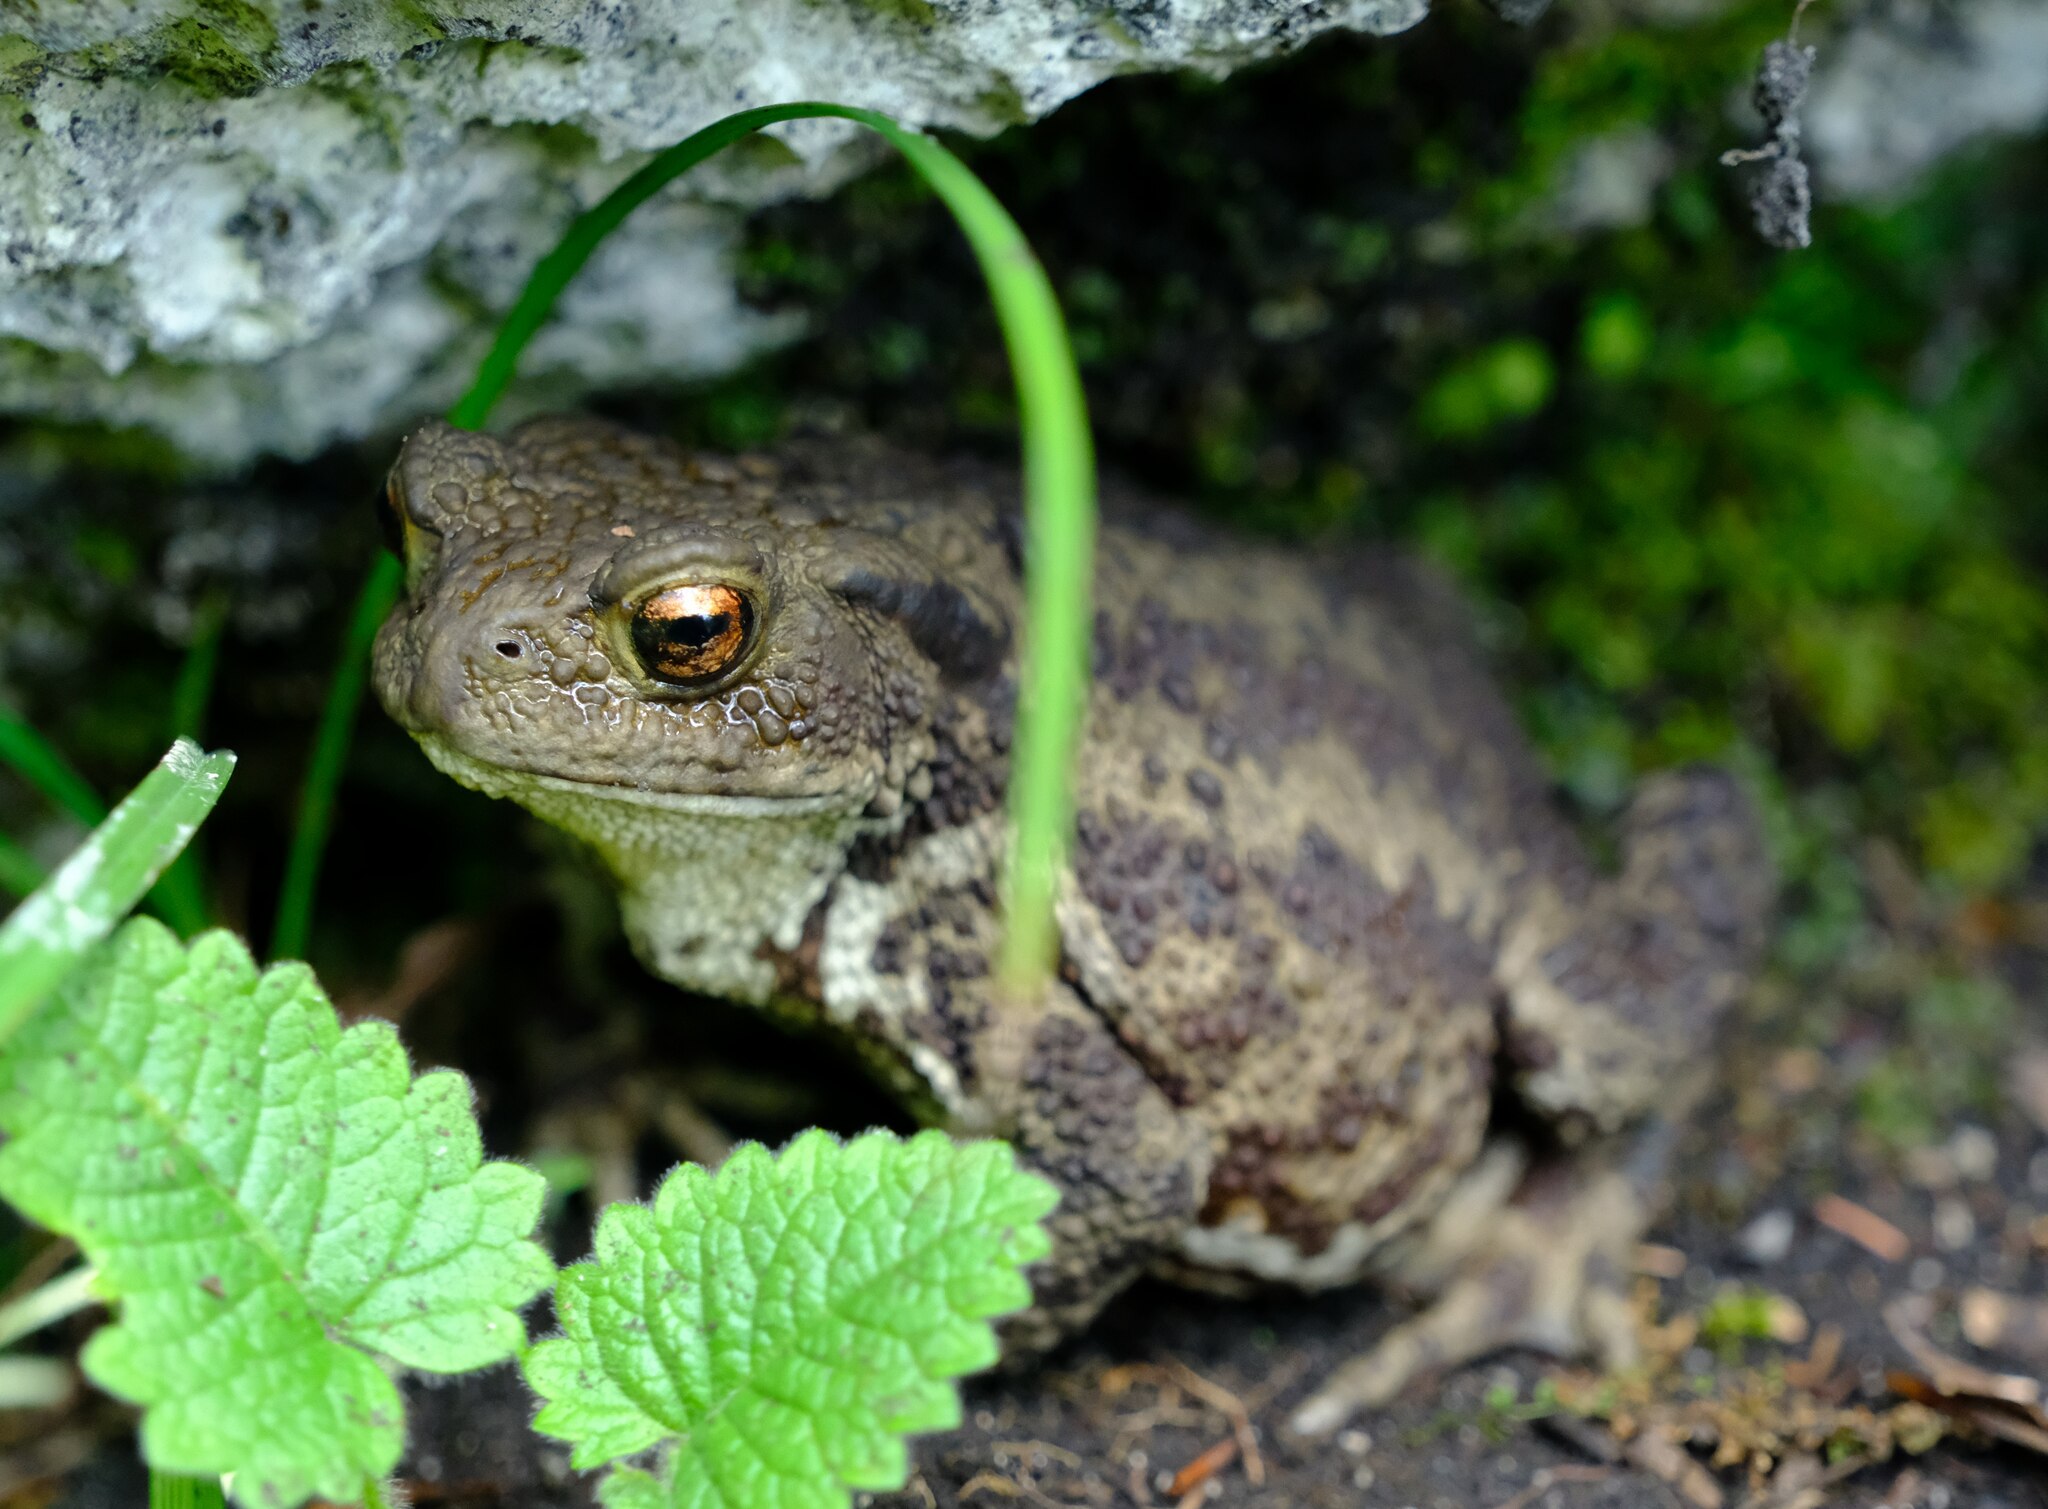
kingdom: Animalia
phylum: Chordata
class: Amphibia
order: Anura
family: Bufonidae
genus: Bufo
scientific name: Bufo bufo
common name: Common toad
